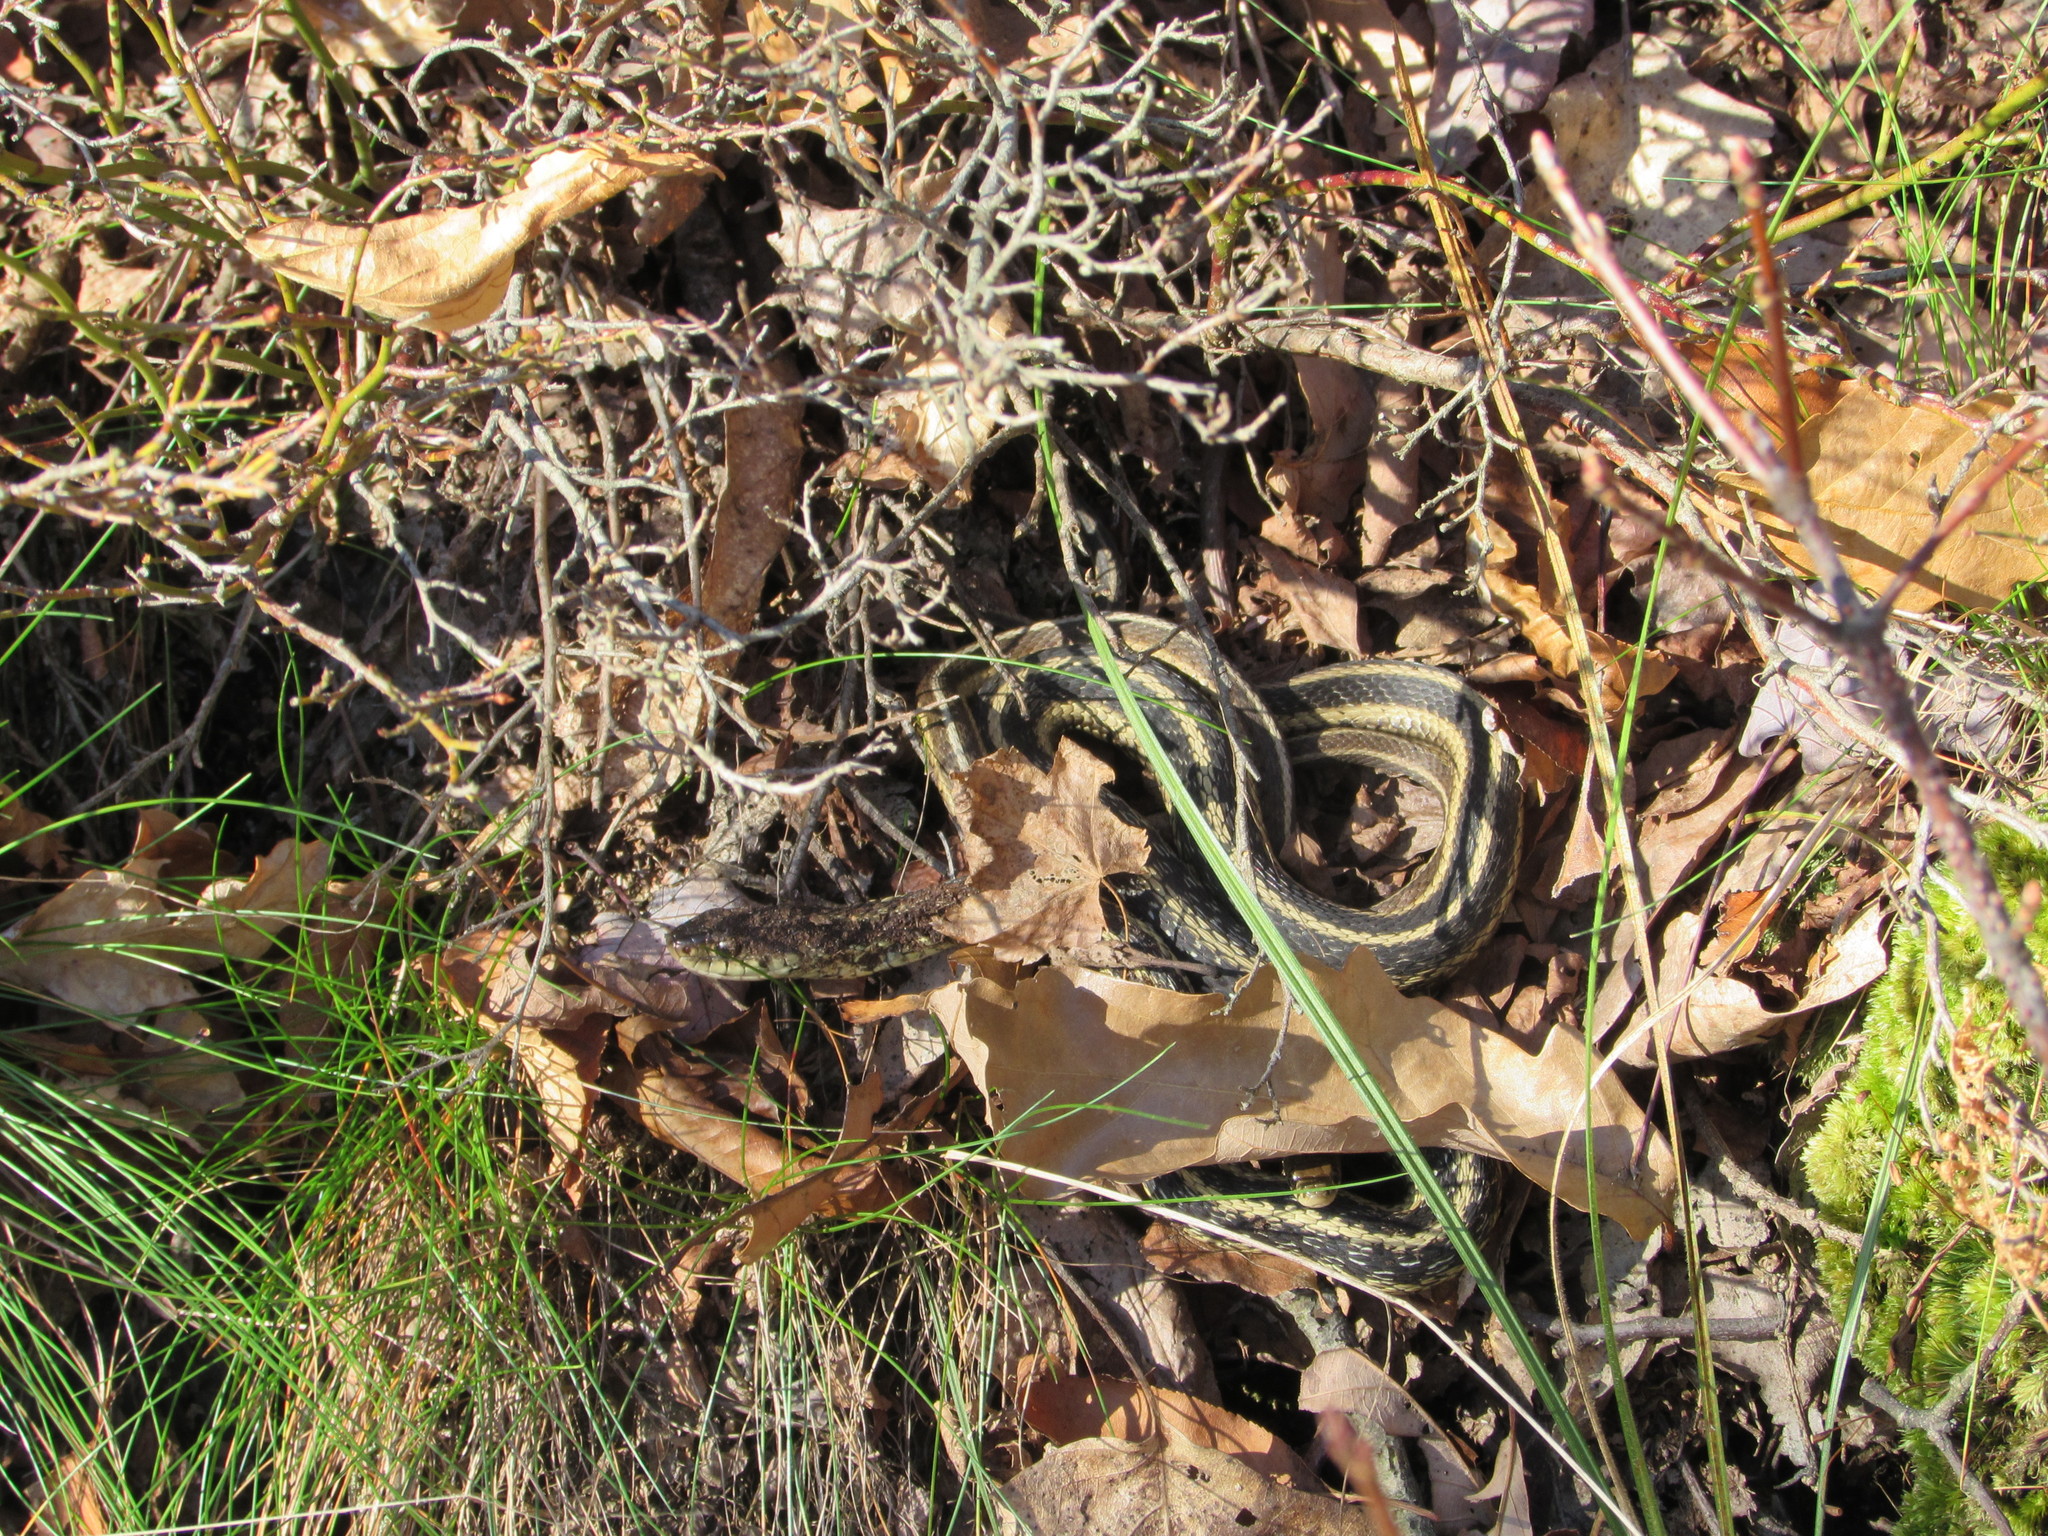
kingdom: Animalia
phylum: Chordata
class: Squamata
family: Colubridae
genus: Thamnophis
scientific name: Thamnophis sirtalis
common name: Common garter snake
